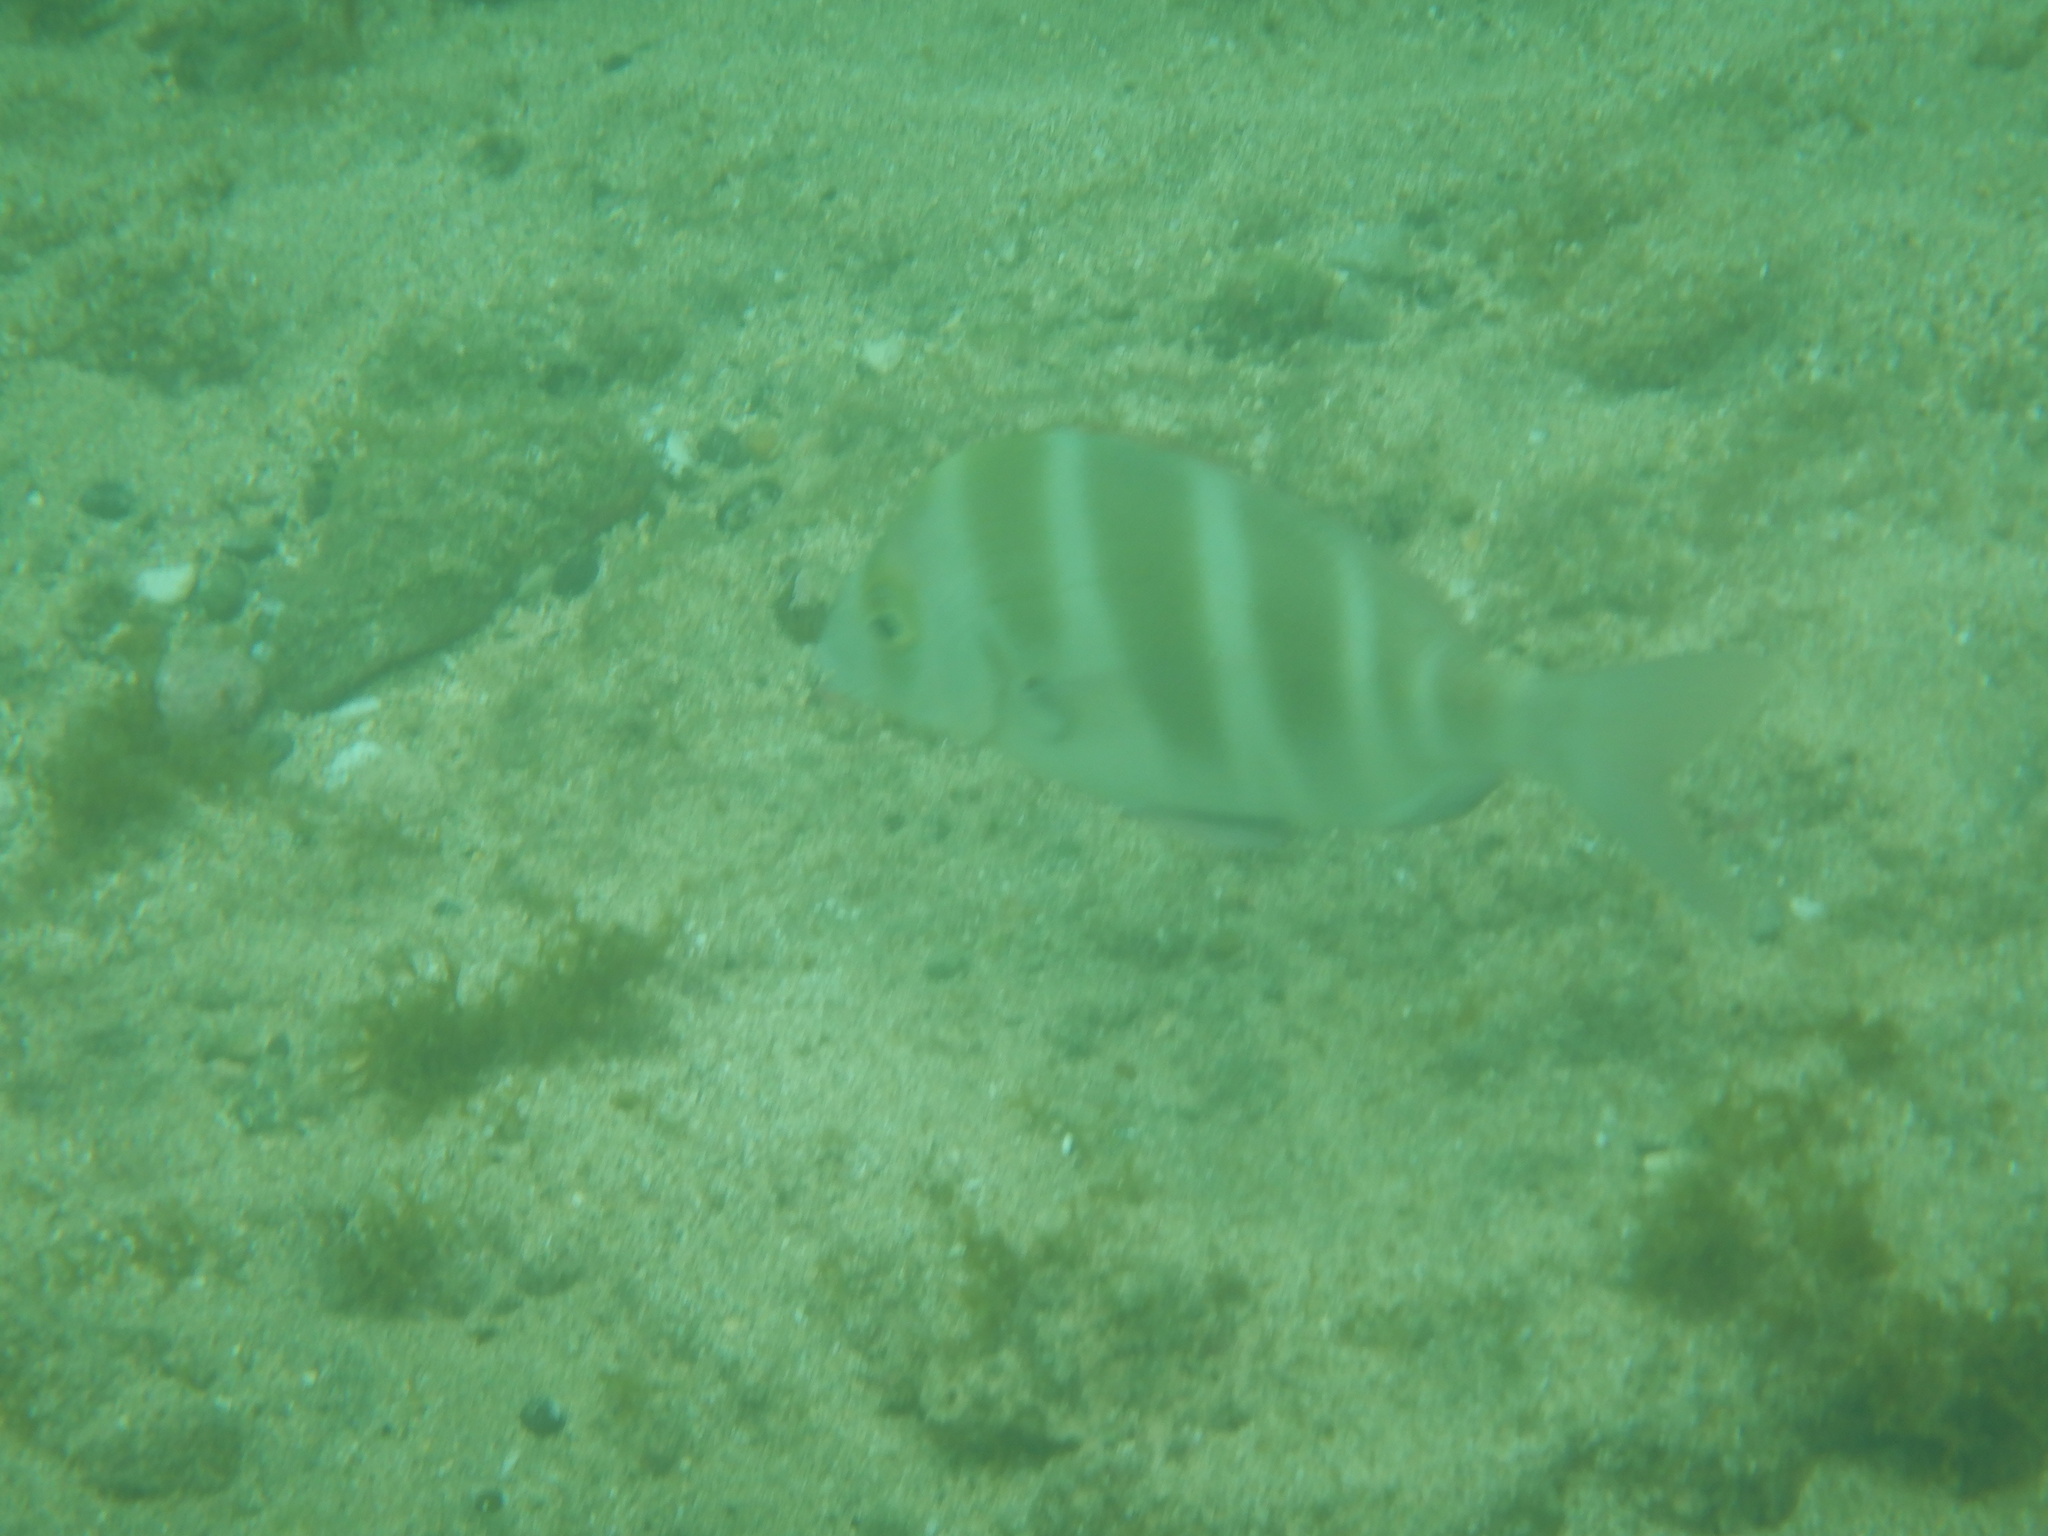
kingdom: Animalia
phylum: Chordata
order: Perciformes
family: Sparidae
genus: Diplodus
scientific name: Diplodus cervinus
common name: Oman porgy
